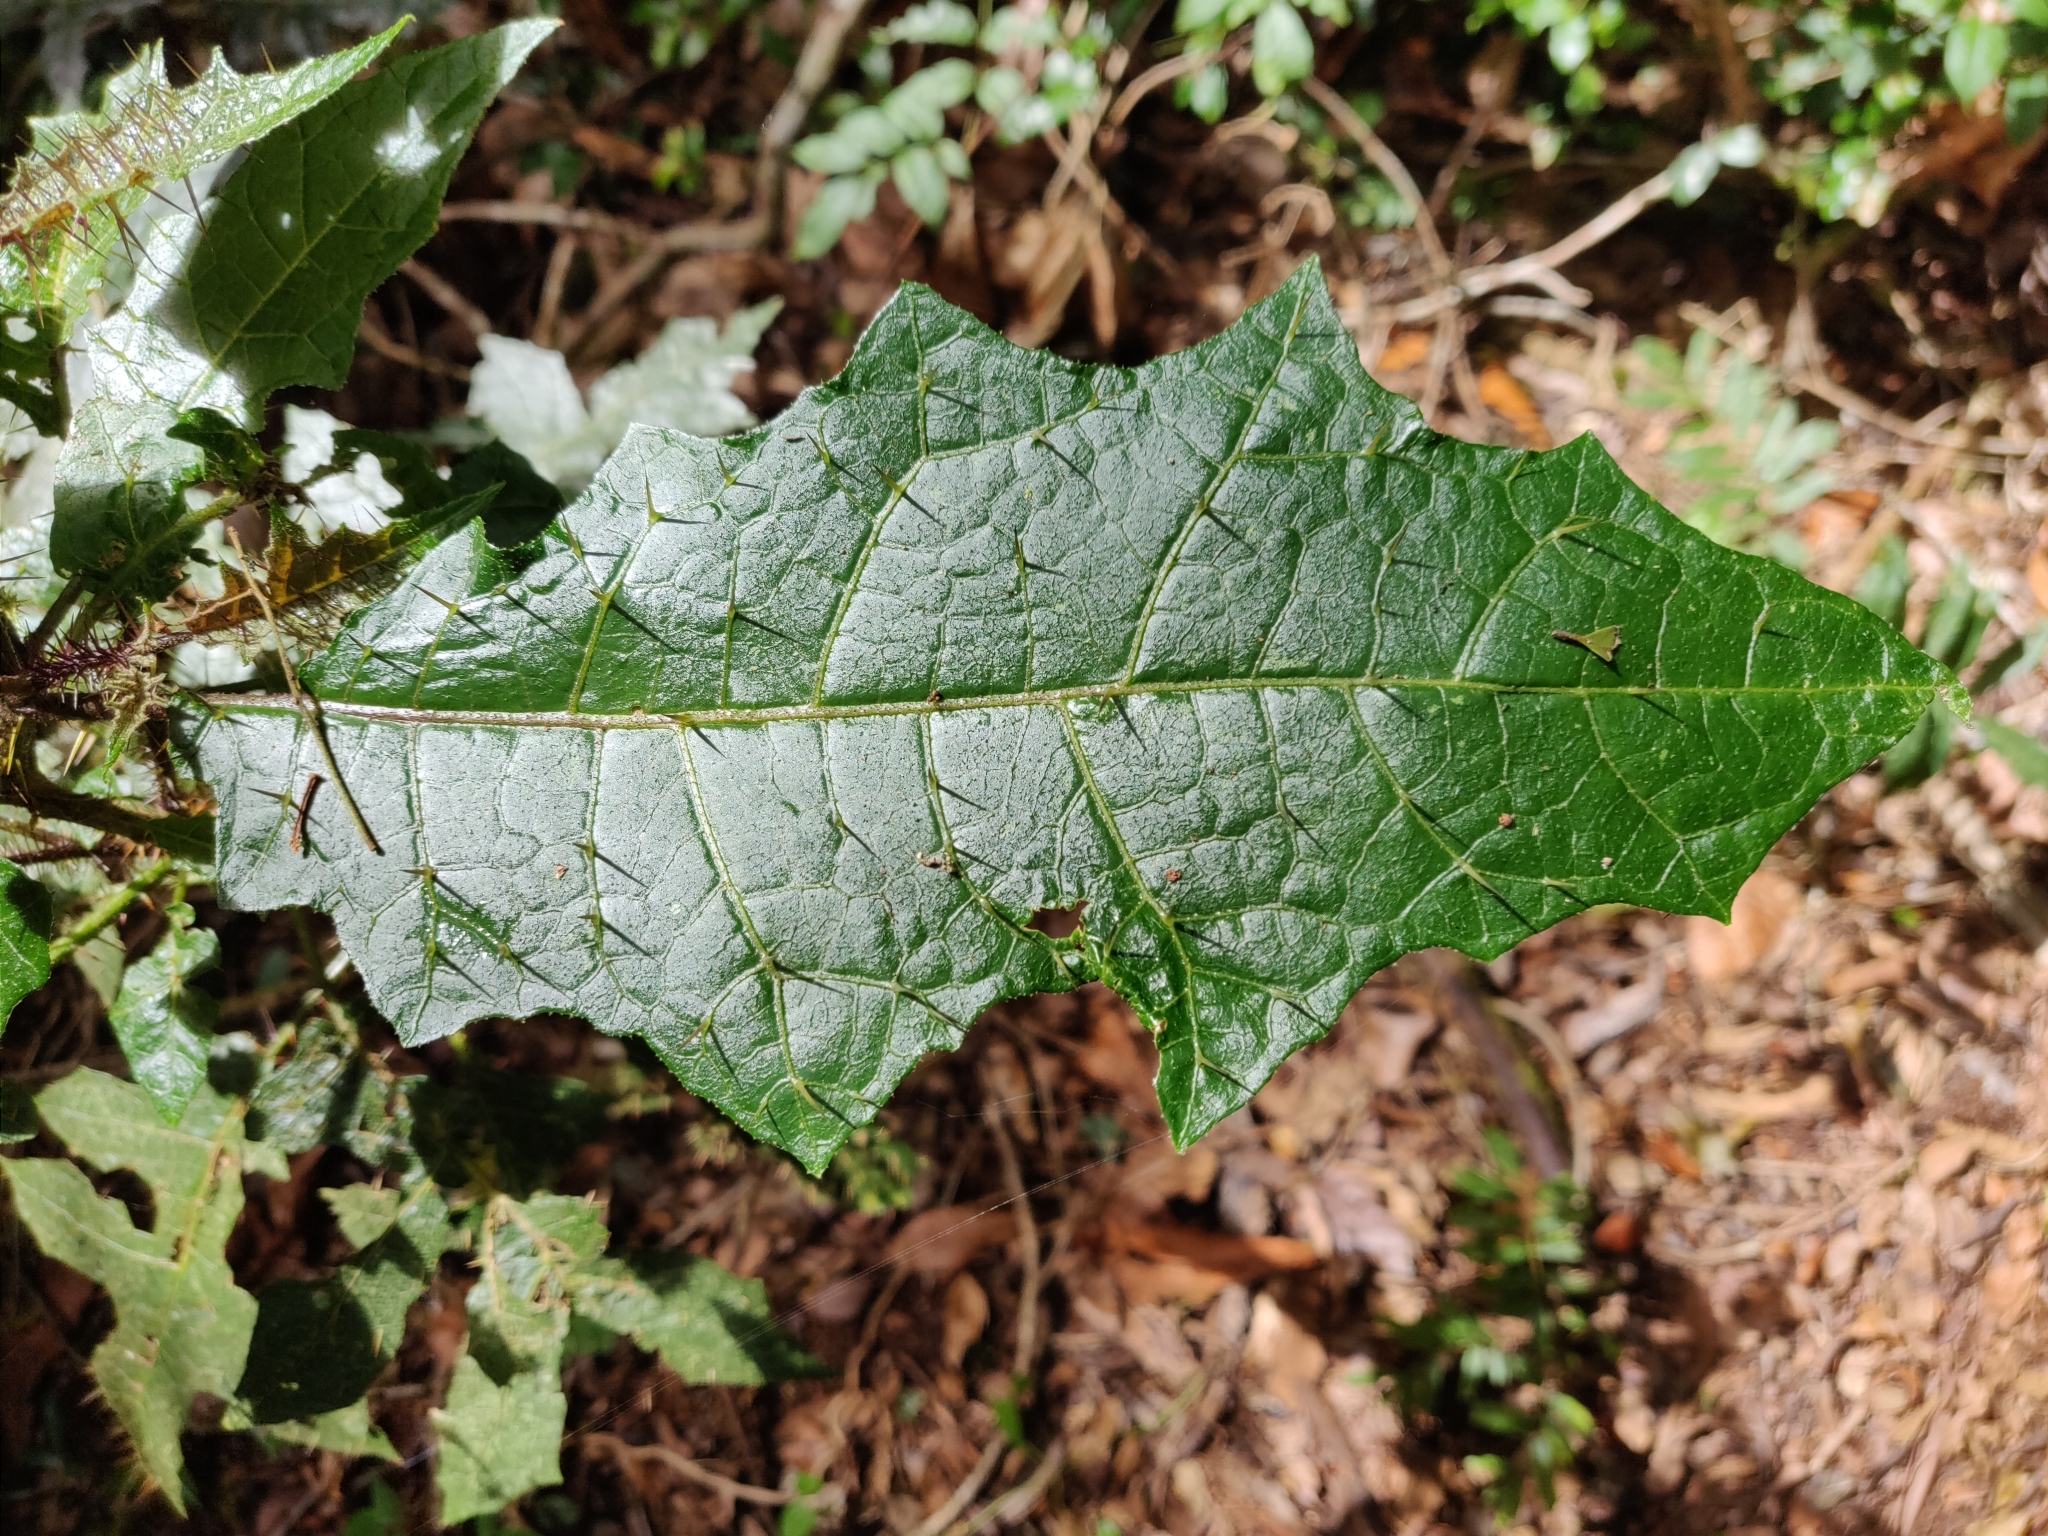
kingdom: Plantae
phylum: Tracheophyta
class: Magnoliopsida
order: Solanales
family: Solanaceae
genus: Solanum
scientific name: Solanum inaequilaterum
